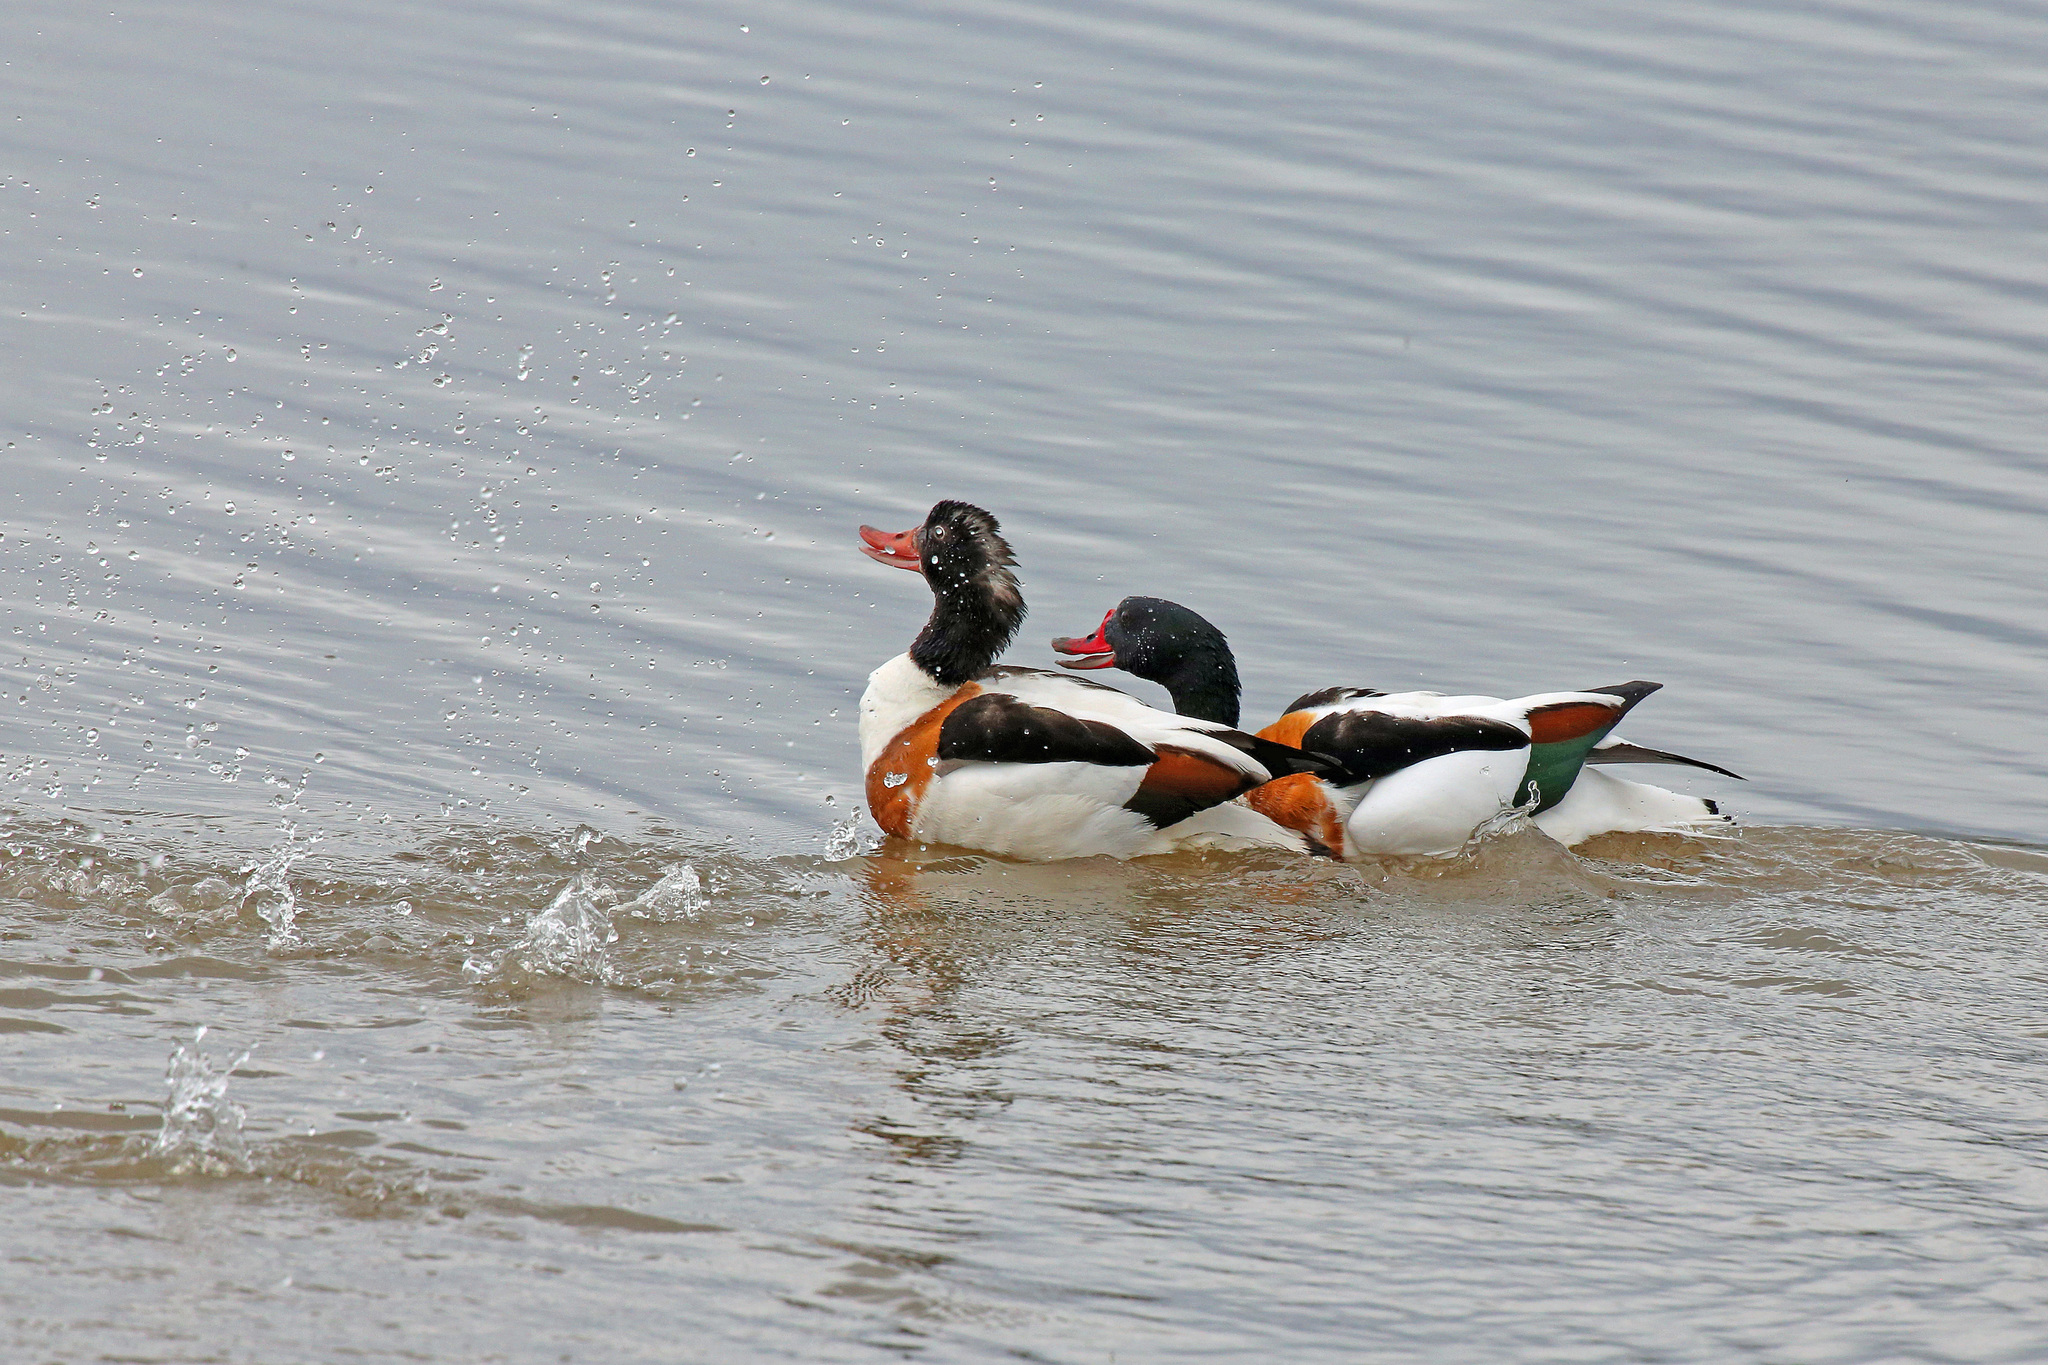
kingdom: Animalia
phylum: Chordata
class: Aves
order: Anseriformes
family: Anatidae
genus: Tadorna
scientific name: Tadorna tadorna
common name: Common shelduck
